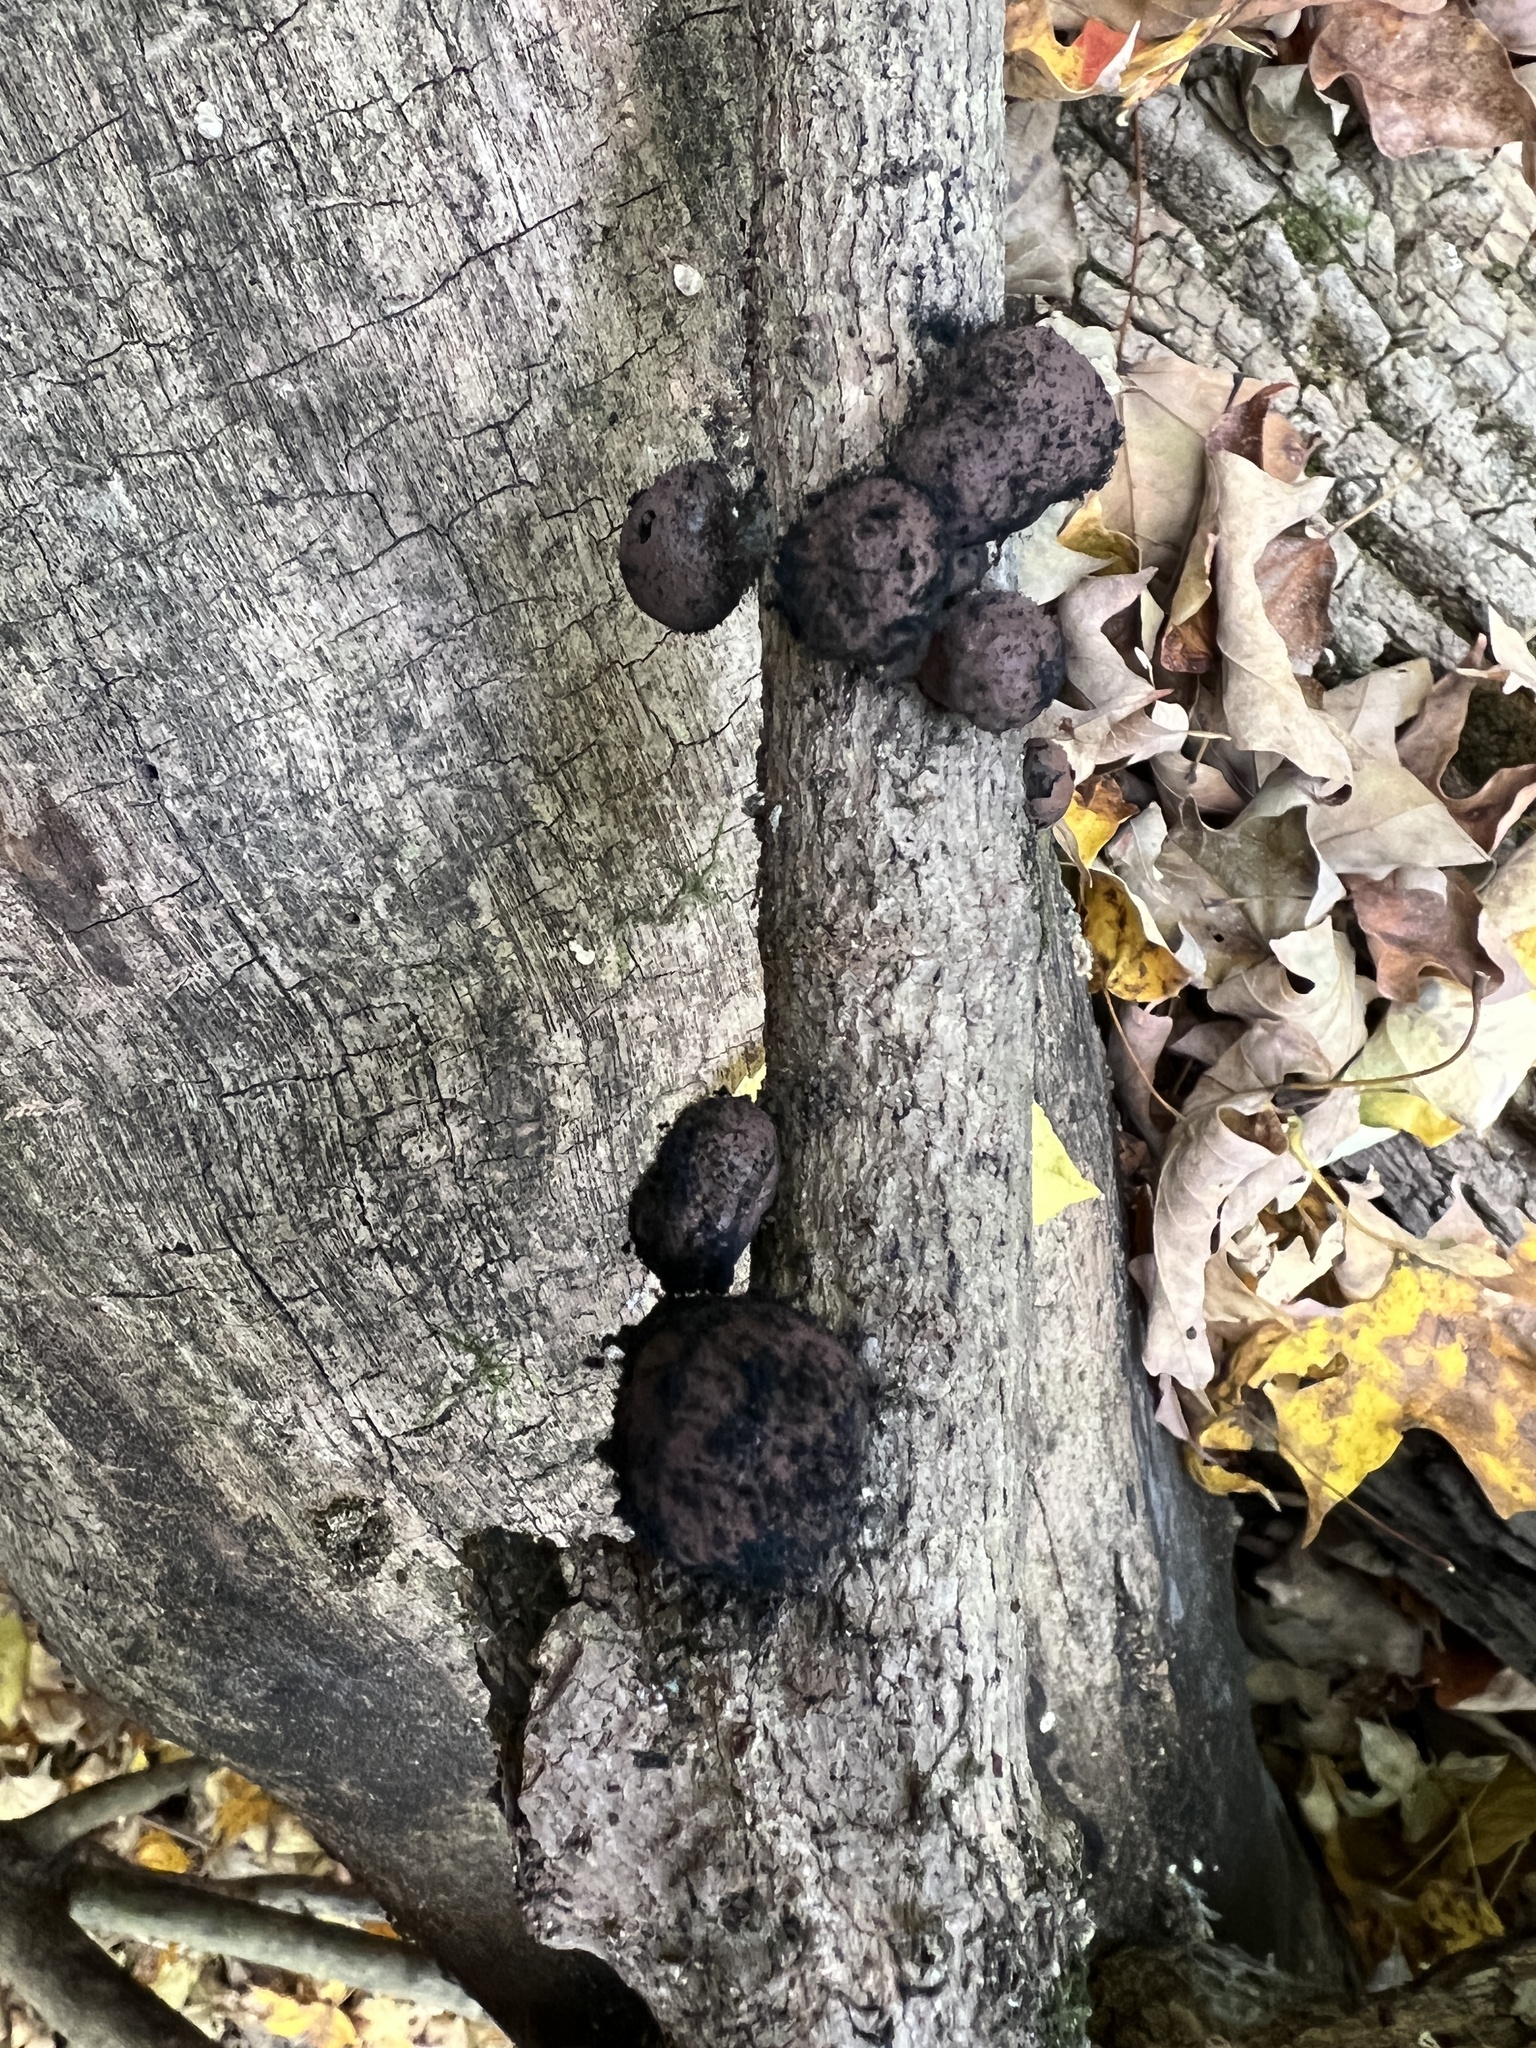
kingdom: Fungi
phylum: Ascomycota
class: Sordariomycetes
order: Xylariales
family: Hypoxylaceae
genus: Daldinia
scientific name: Daldinia childiae
